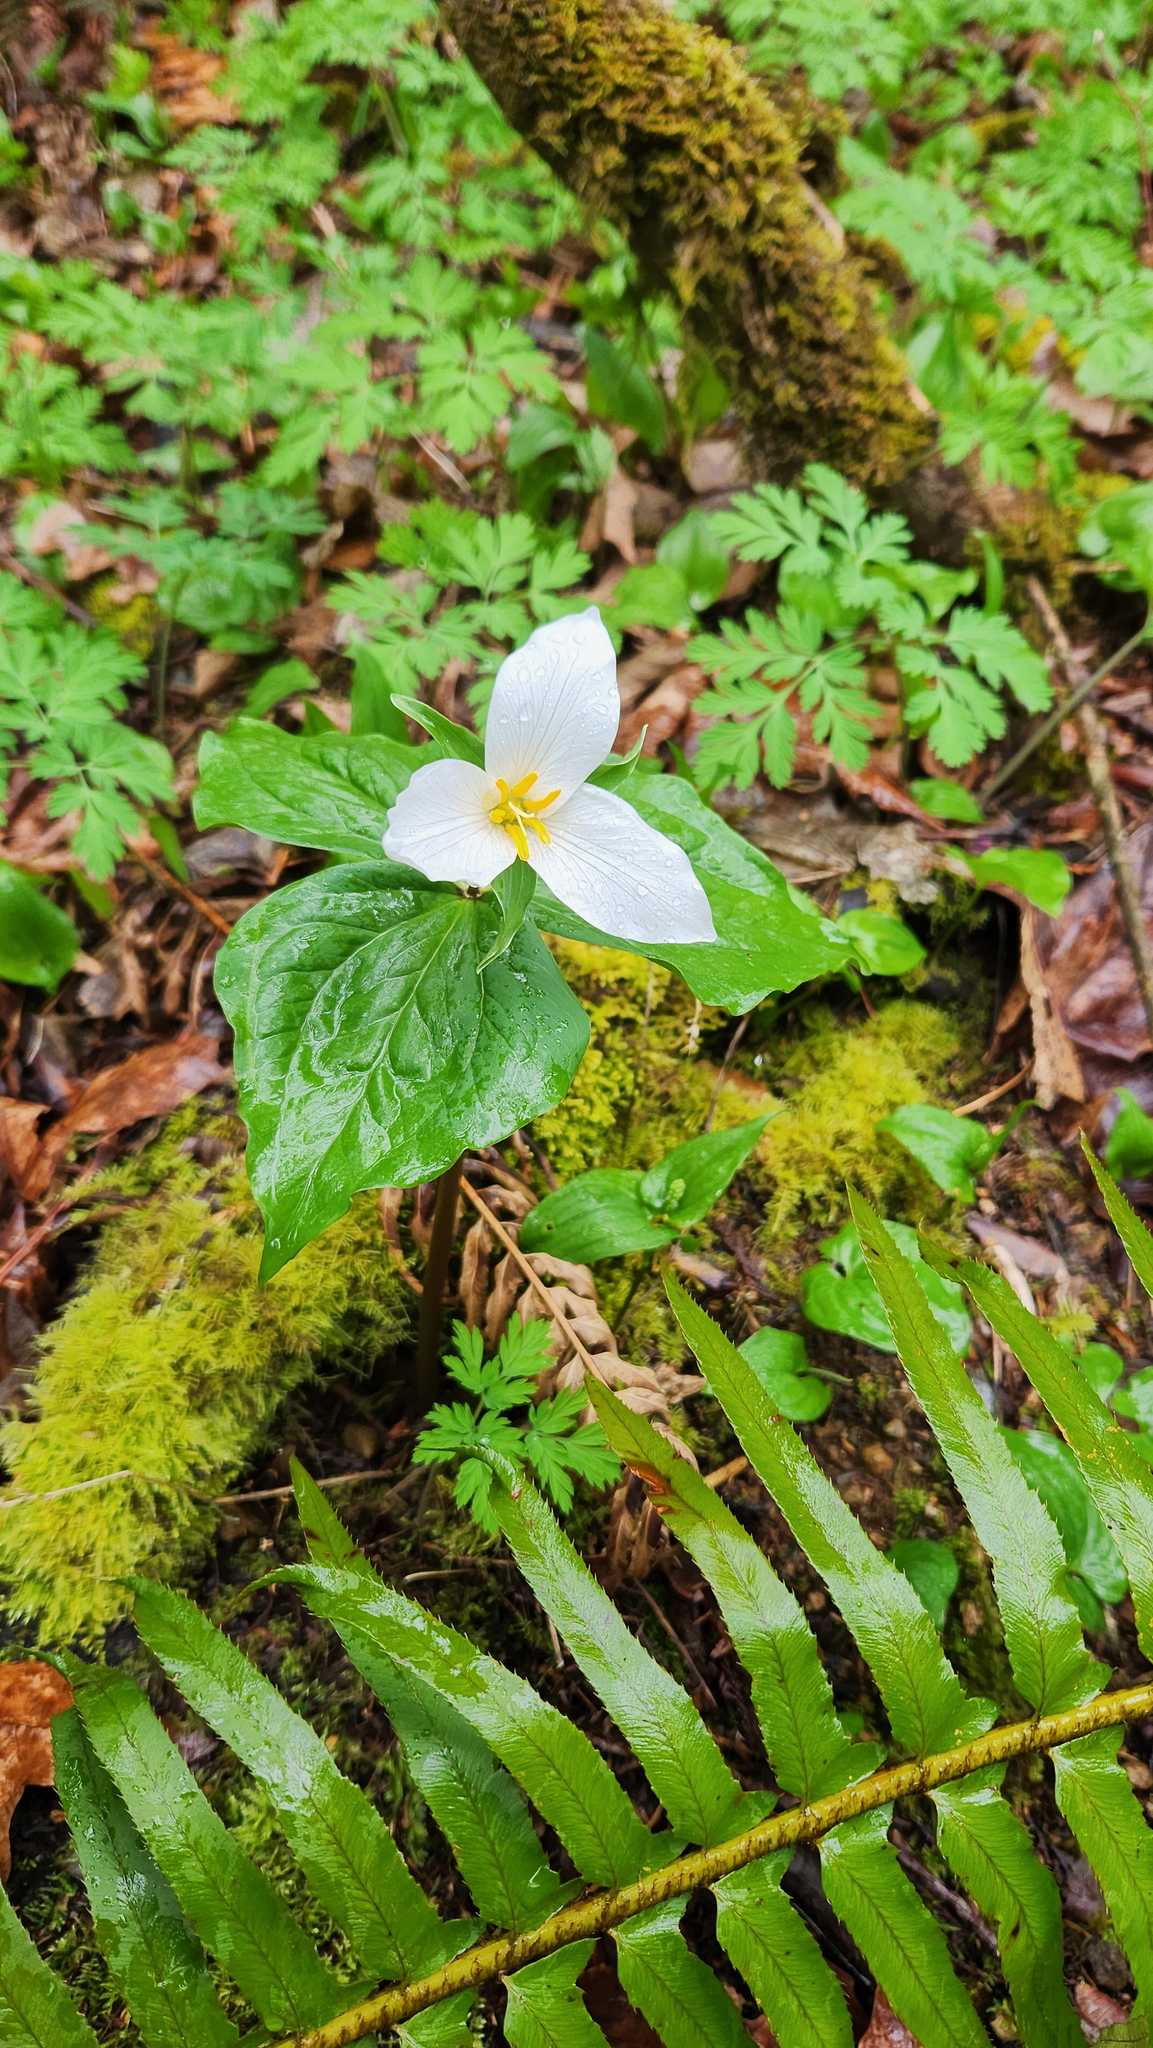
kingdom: Plantae
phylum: Tracheophyta
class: Liliopsida
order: Liliales
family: Melanthiaceae
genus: Trillium
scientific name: Trillium ovatum
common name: Pacific trillium
